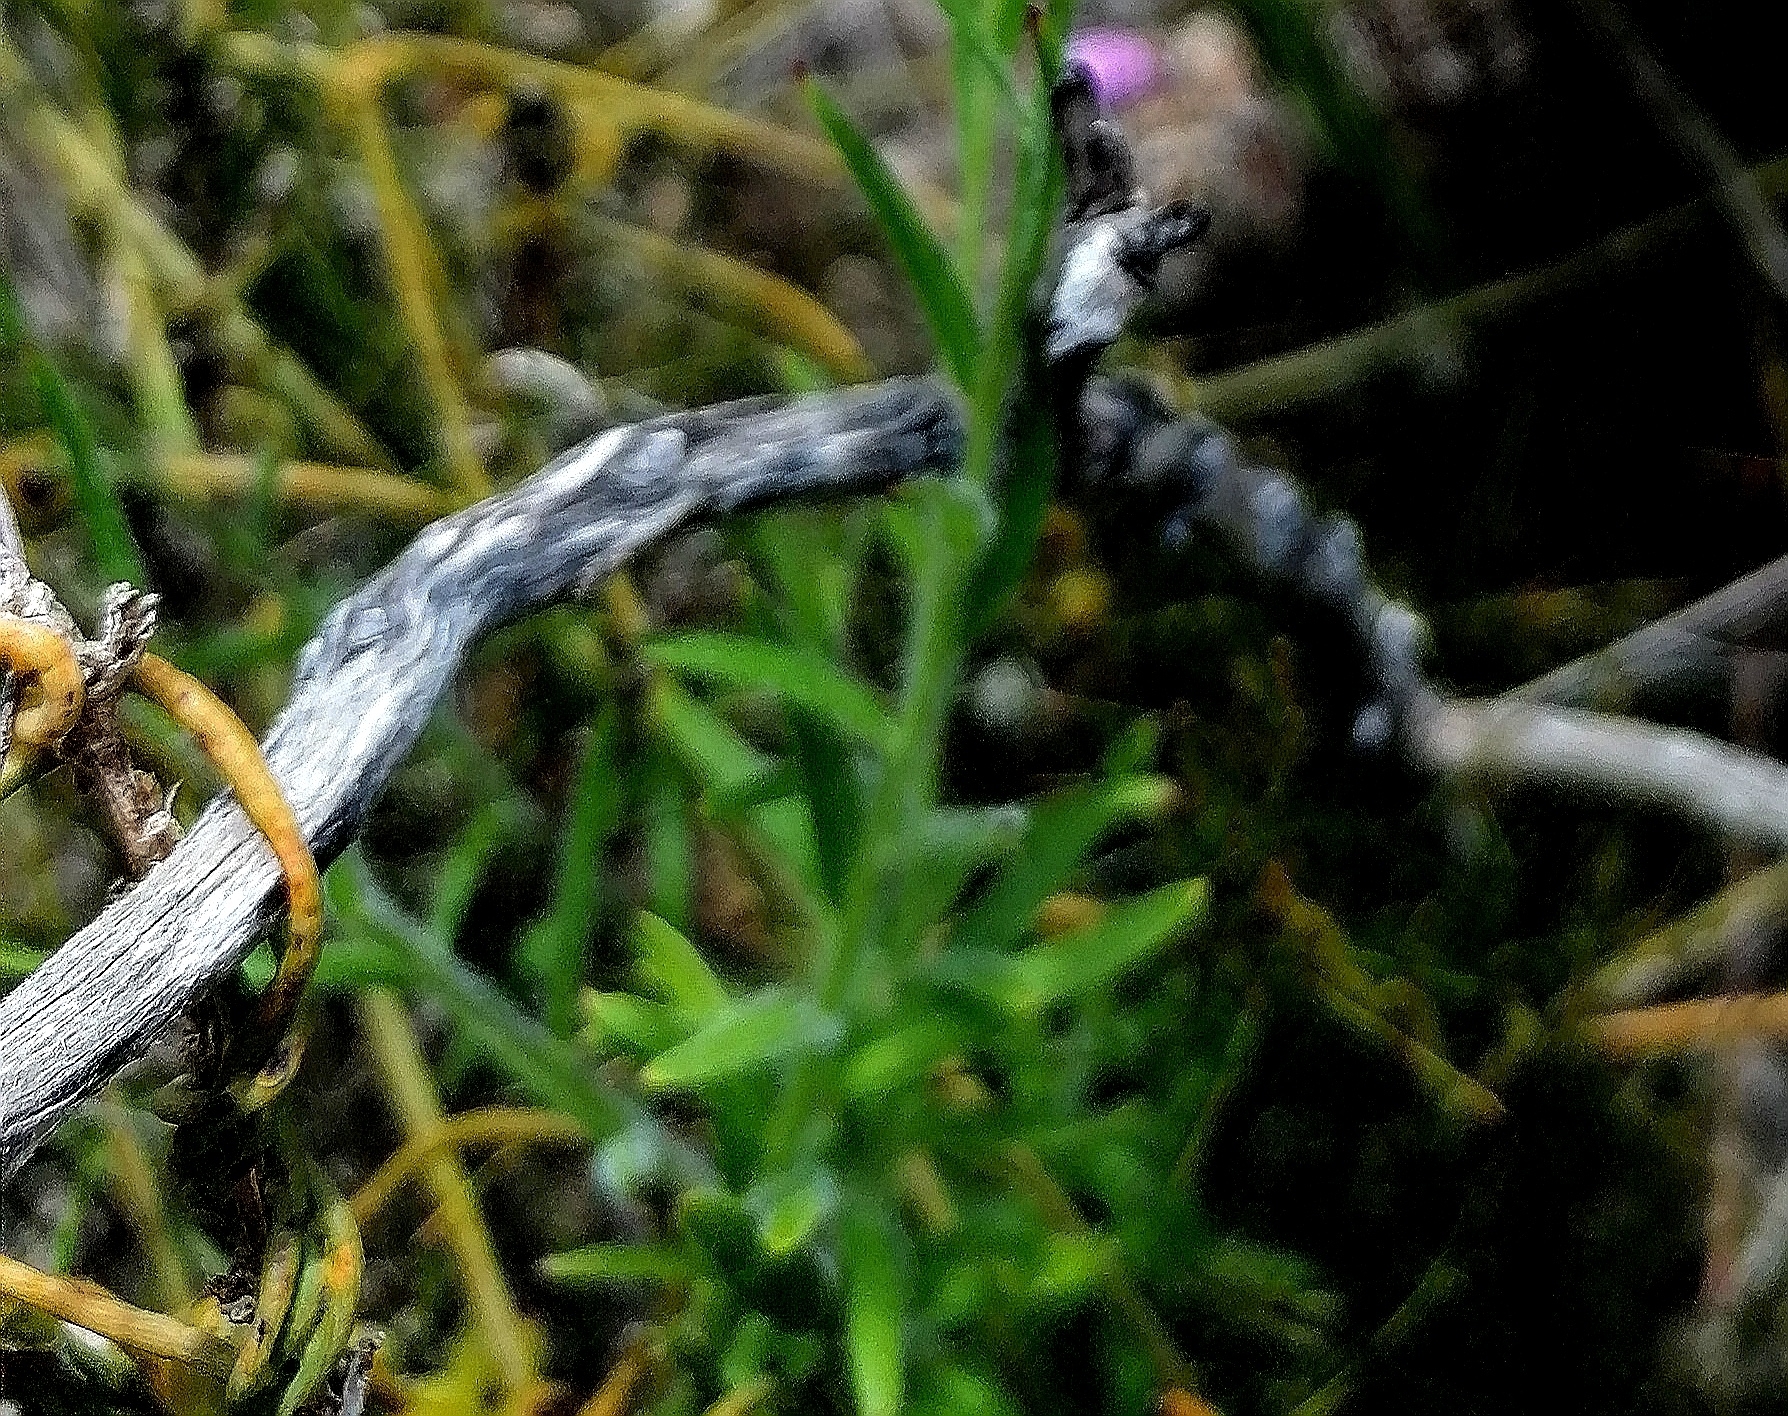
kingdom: Plantae
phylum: Tracheophyta
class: Magnoliopsida
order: Fabales
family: Polygalaceae
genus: Polygala
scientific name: Polygala bracteolata
